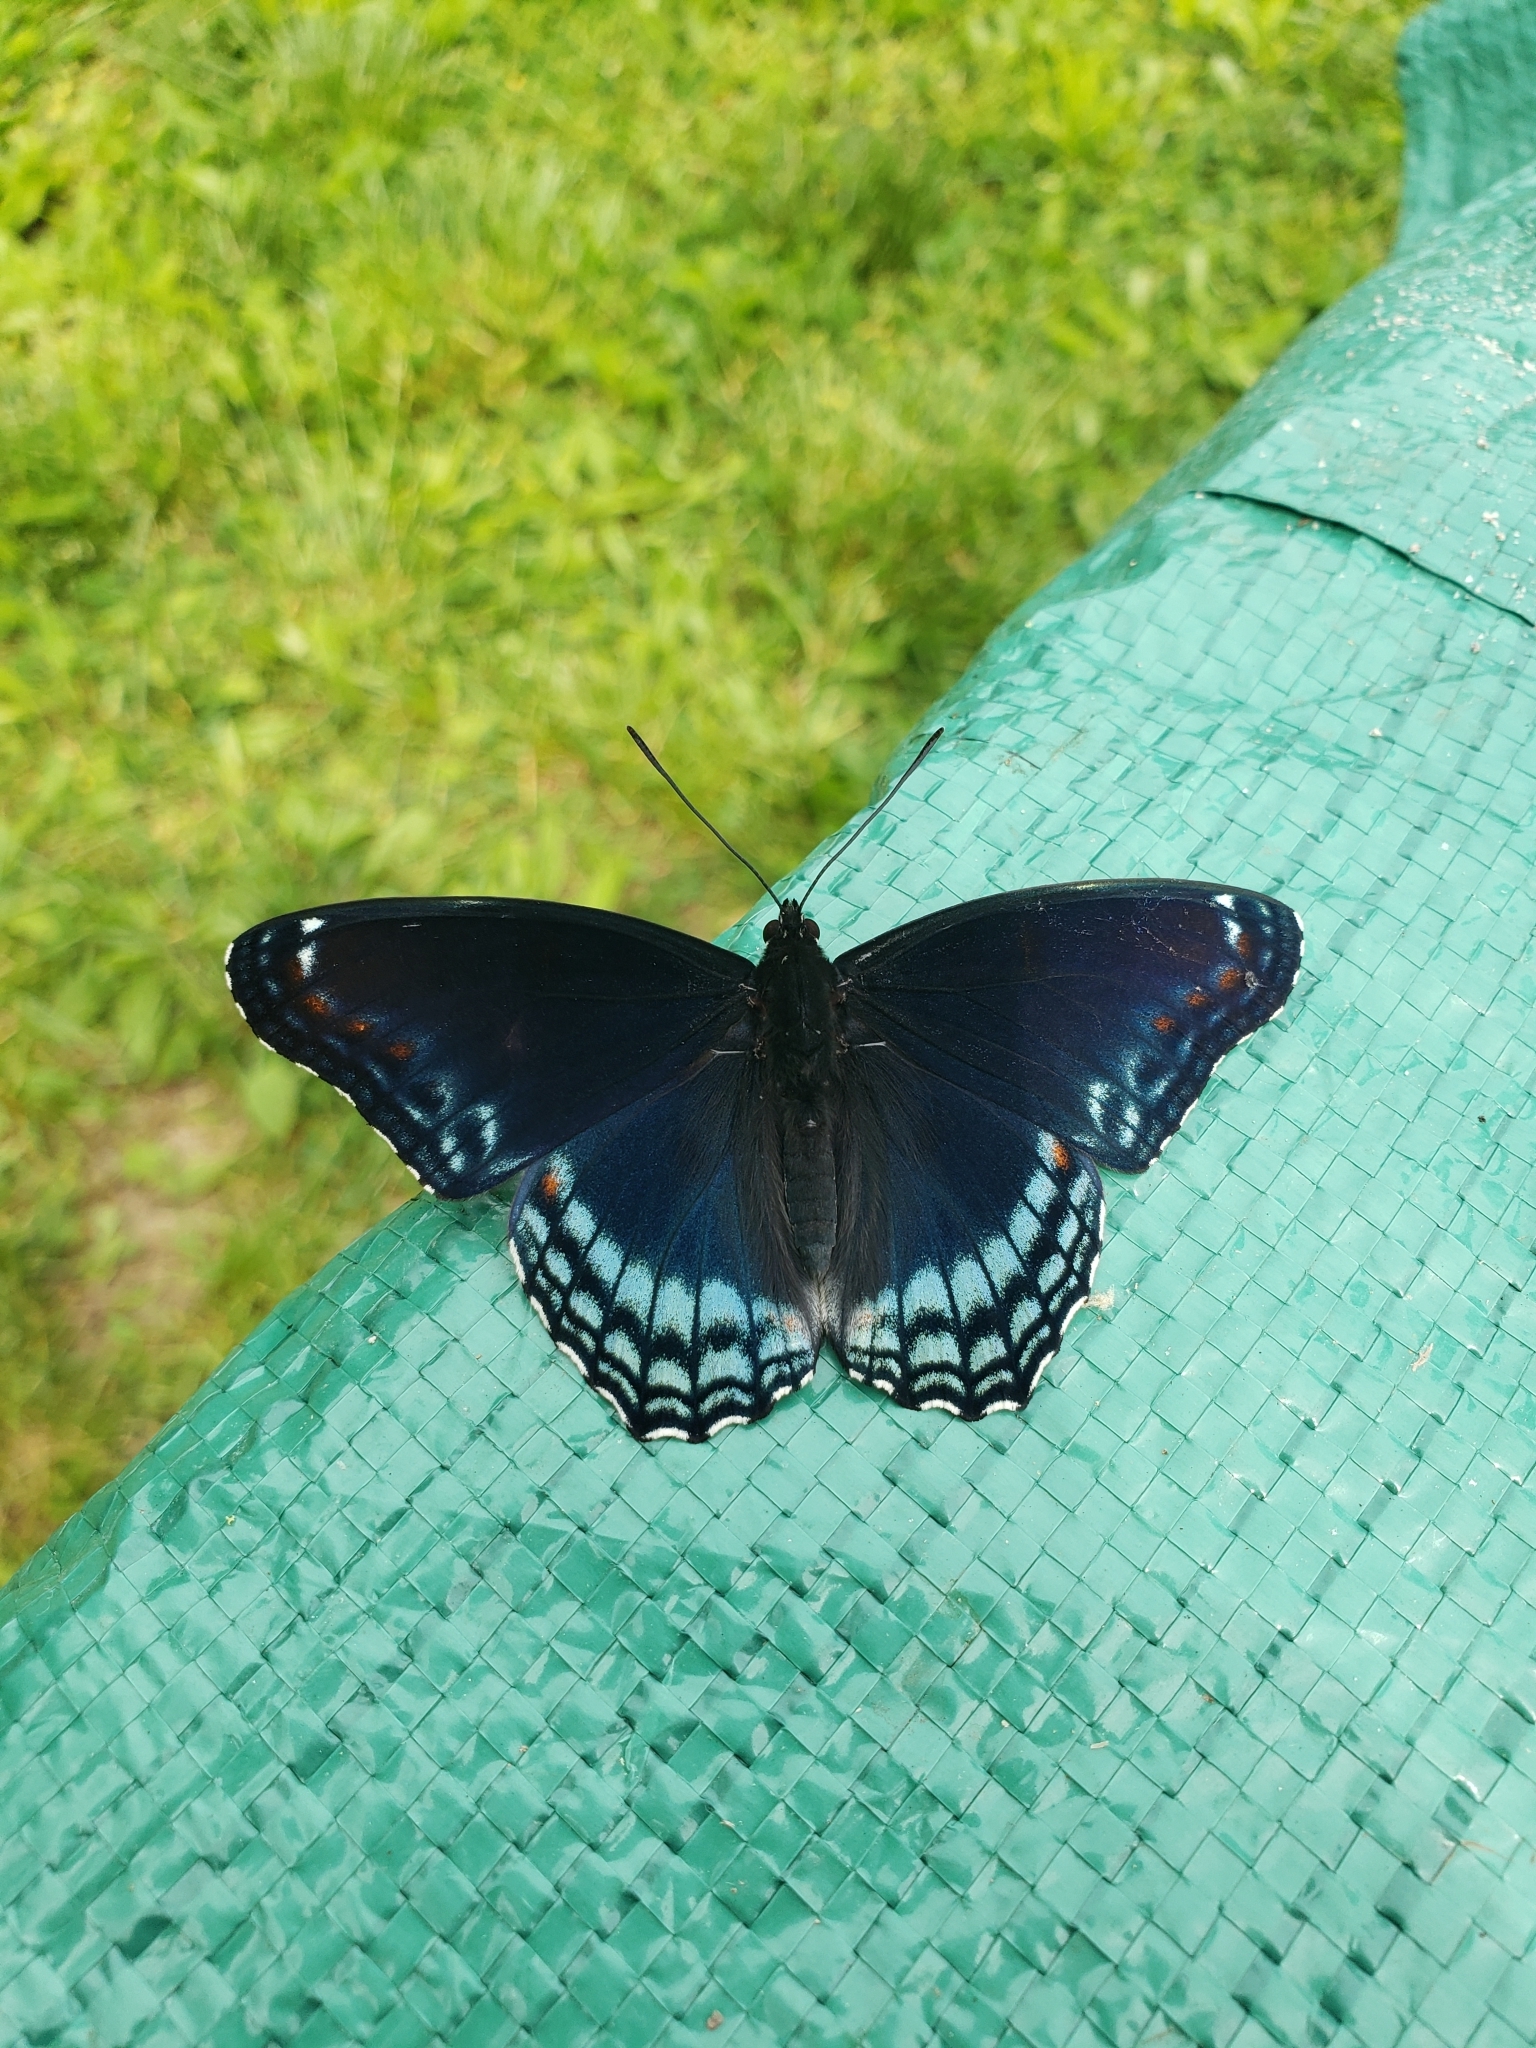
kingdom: Animalia
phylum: Arthropoda
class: Insecta
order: Lepidoptera
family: Nymphalidae
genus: Limenitis
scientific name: Limenitis astyanax
